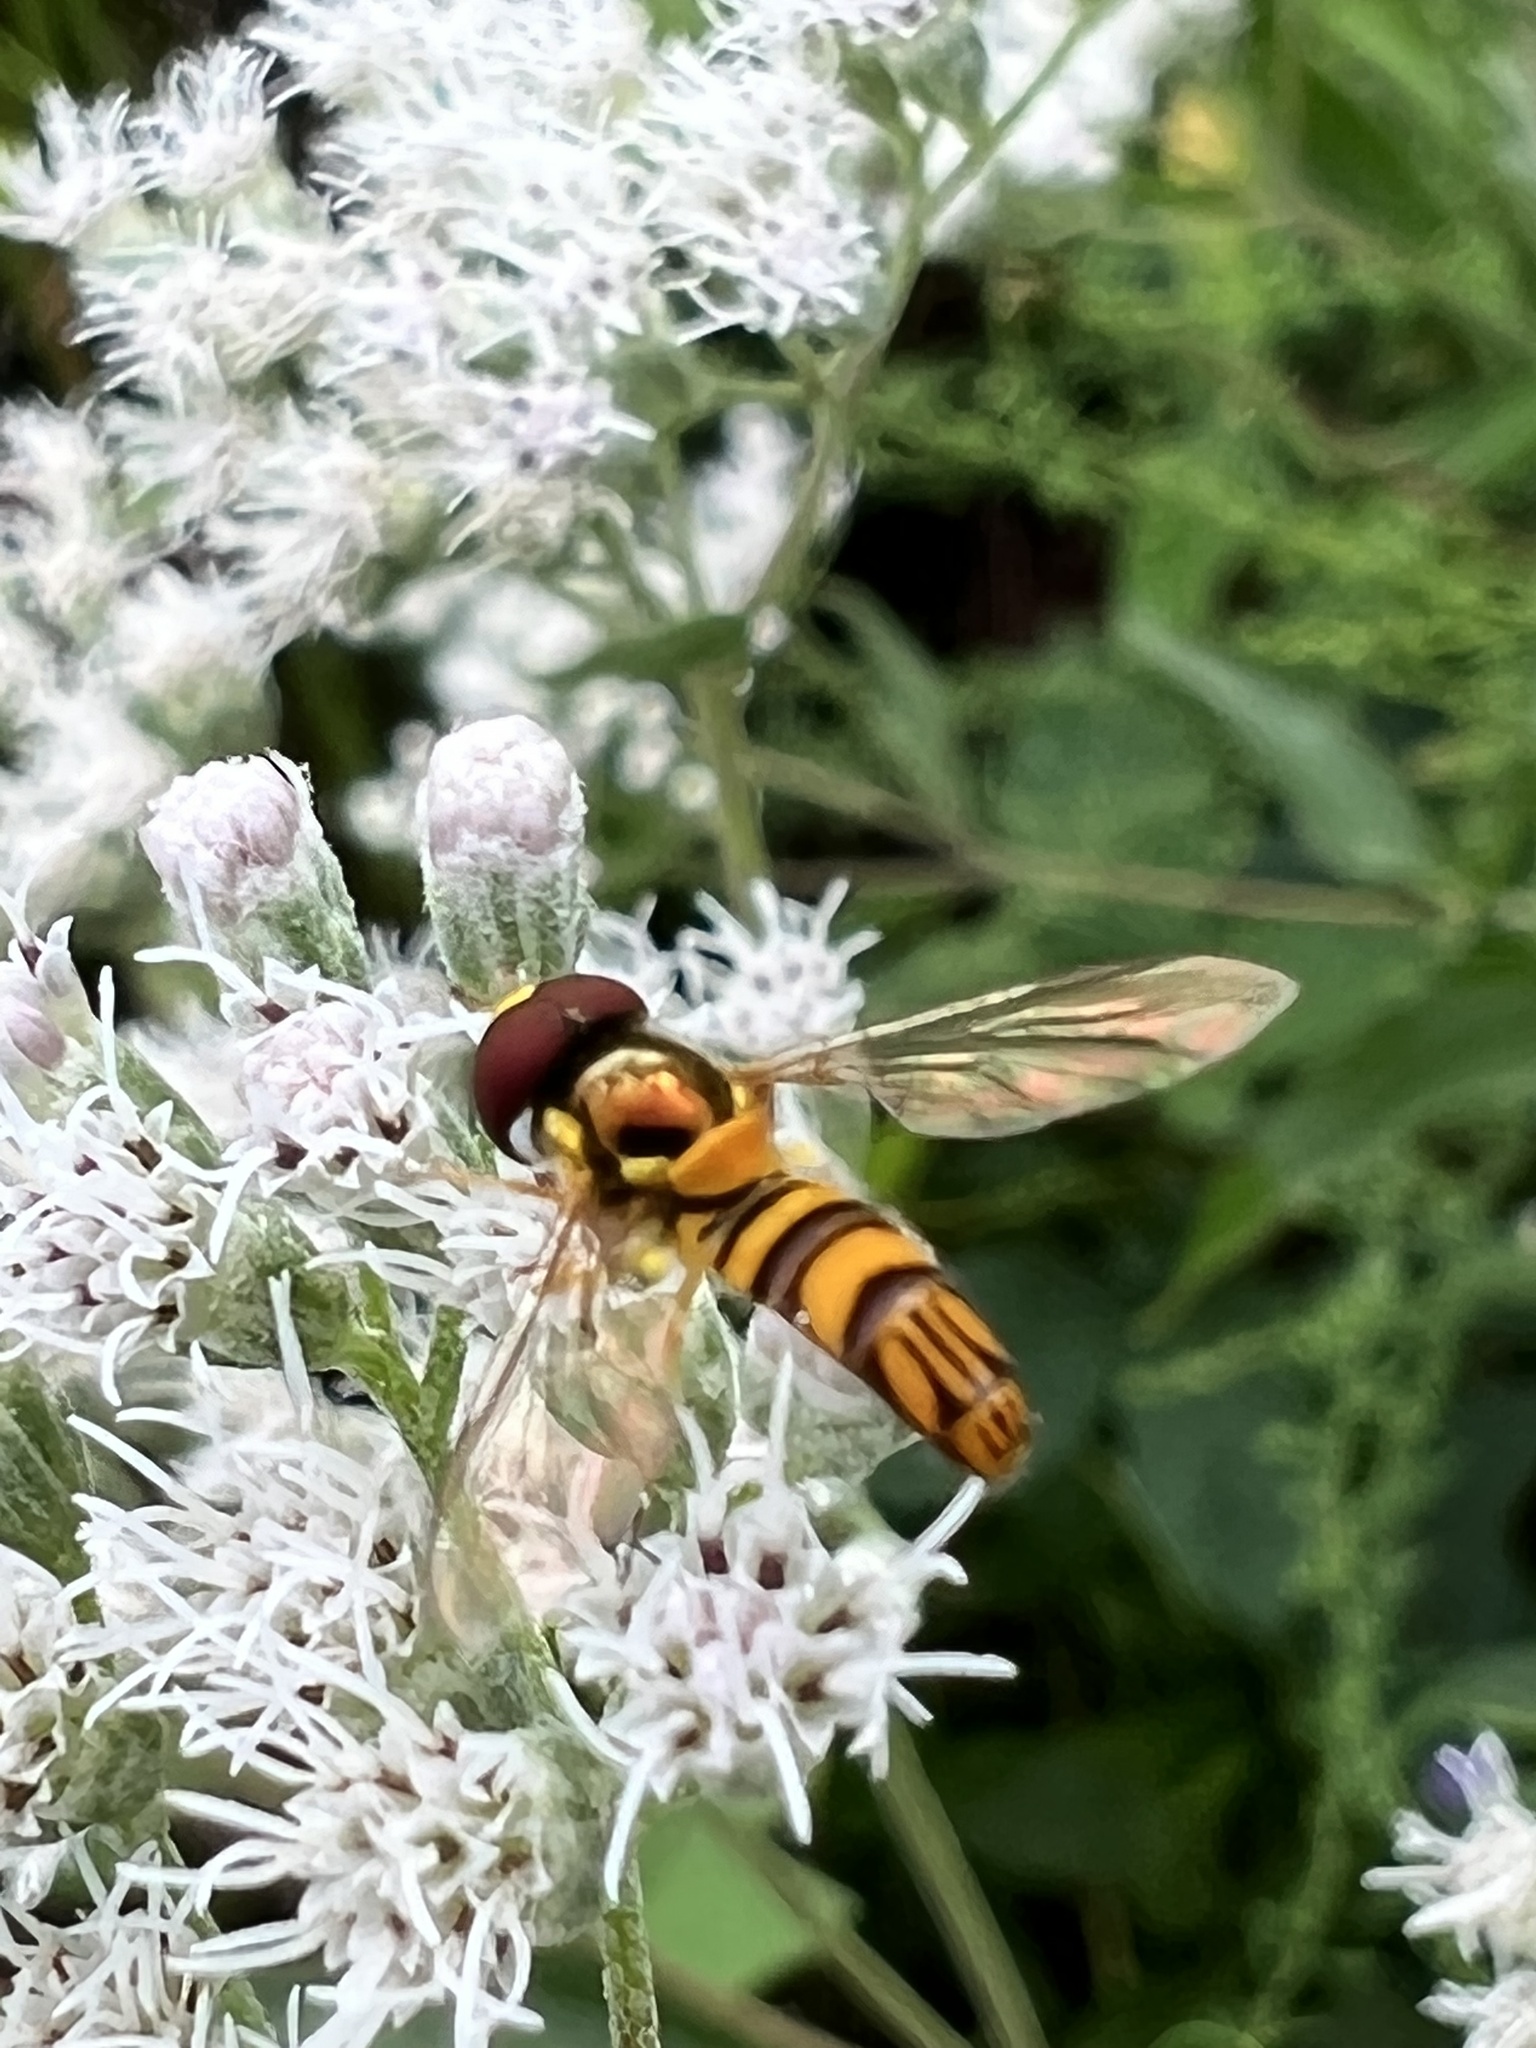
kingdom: Animalia
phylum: Arthropoda
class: Insecta
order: Diptera
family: Syrphidae
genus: Allograpta
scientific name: Allograpta obliqua
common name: Common oblique syrphid
